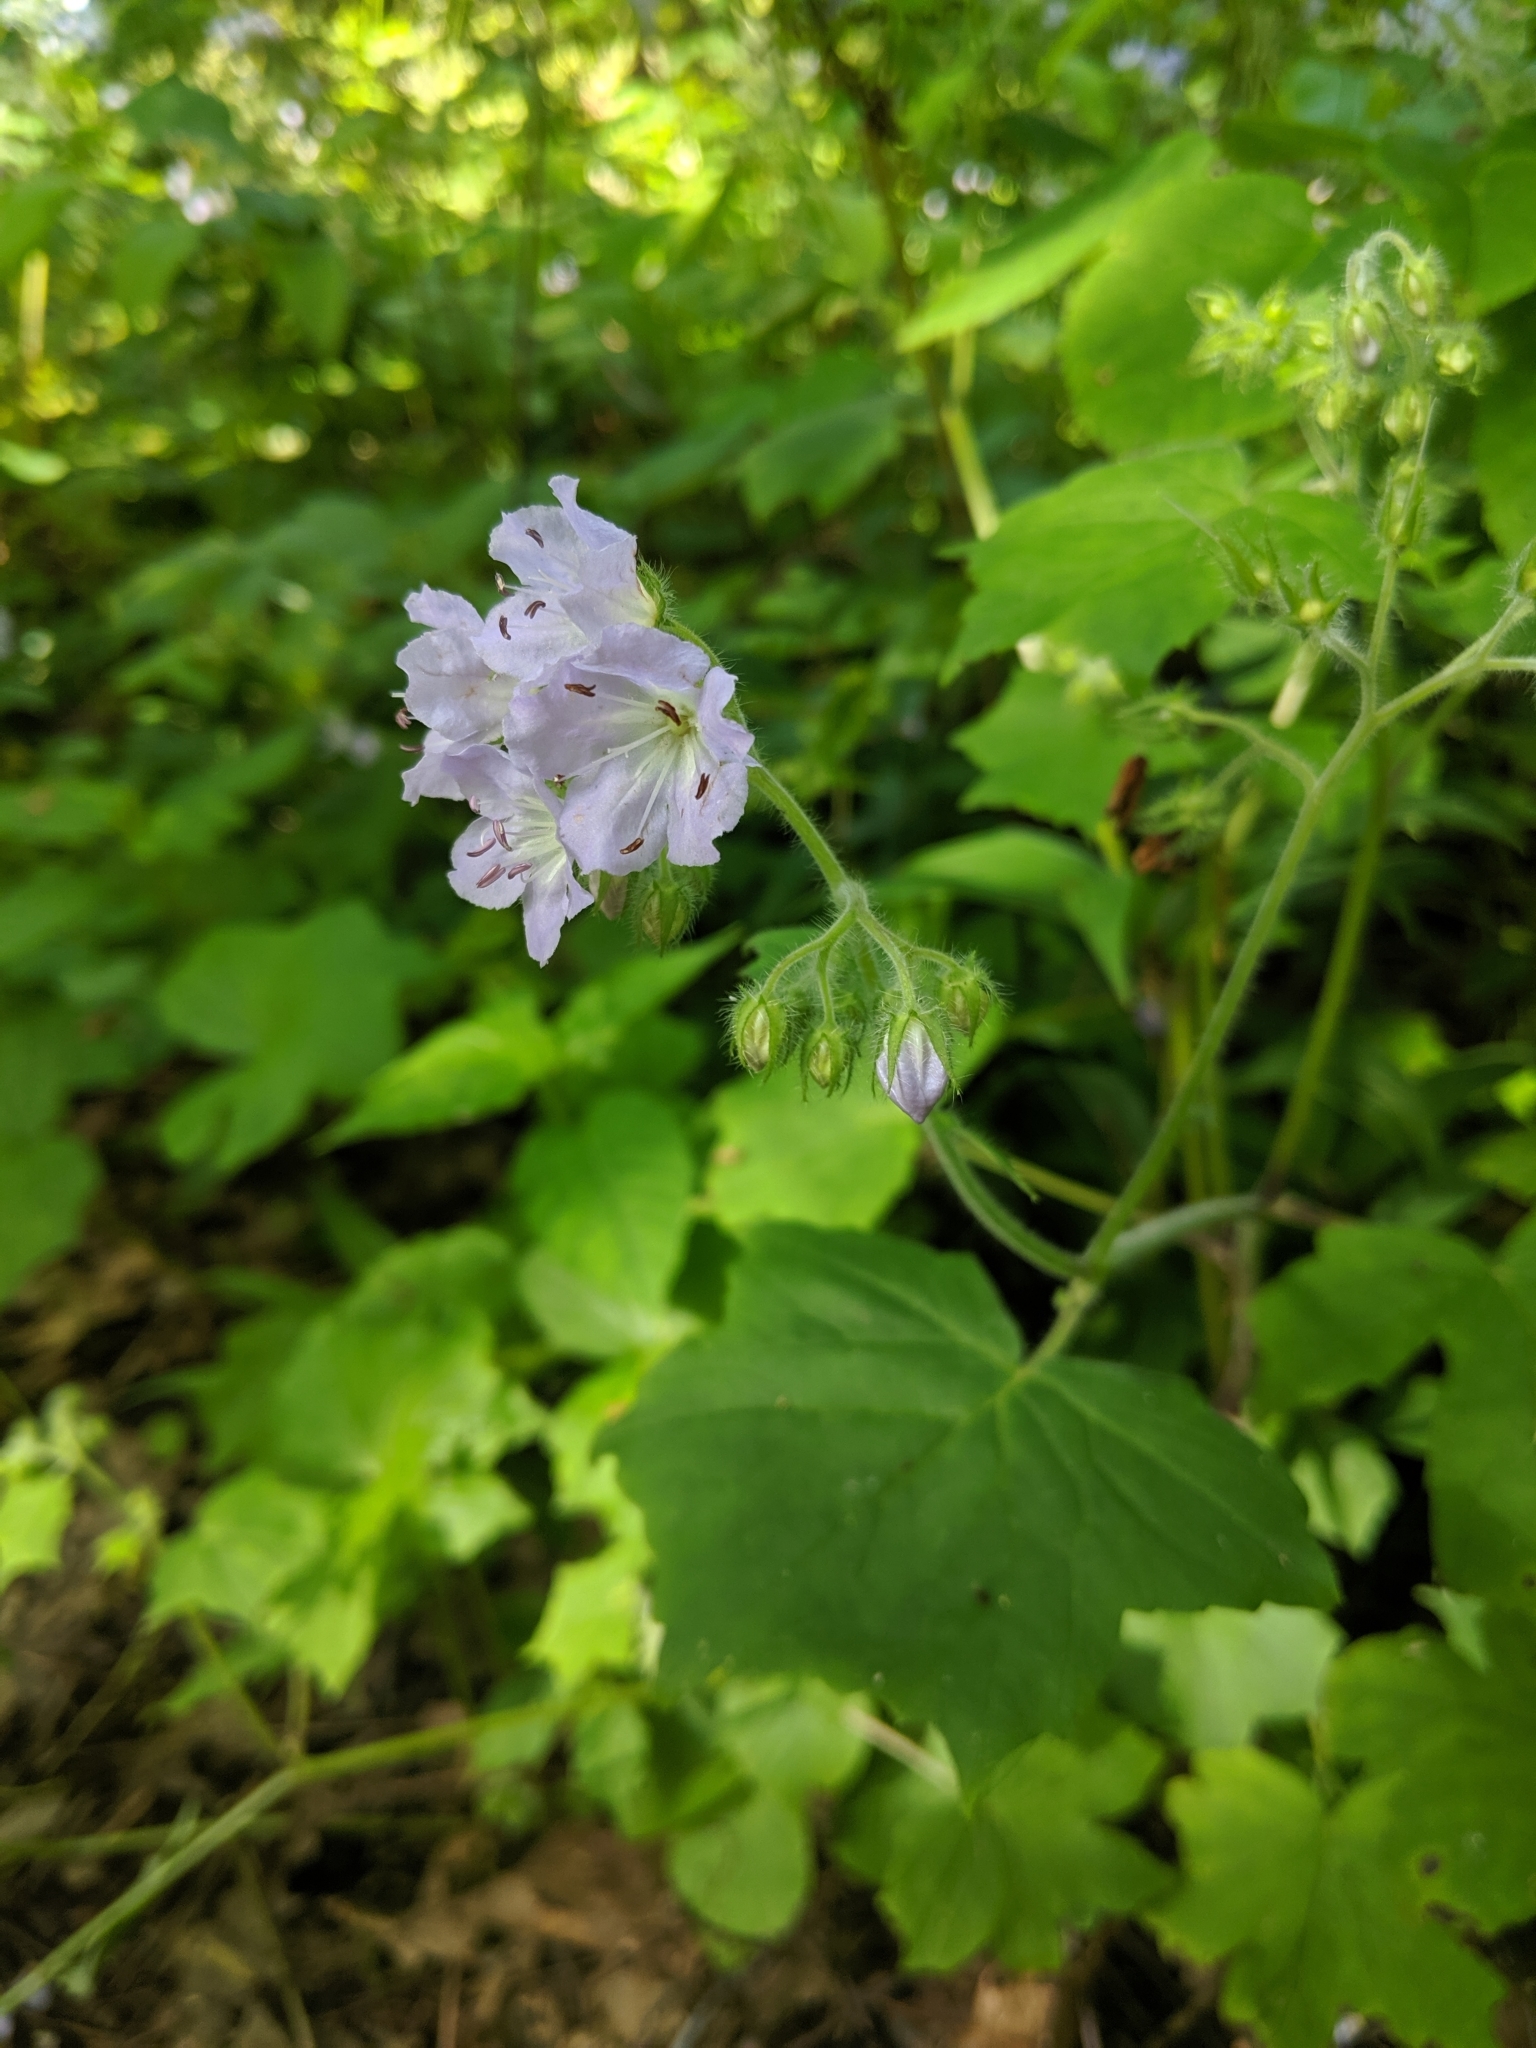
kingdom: Plantae
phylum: Tracheophyta
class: Magnoliopsida
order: Boraginales
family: Hydrophyllaceae
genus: Hydrophyllum
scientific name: Hydrophyllum appendiculatum
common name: Appendaged waterleaf
